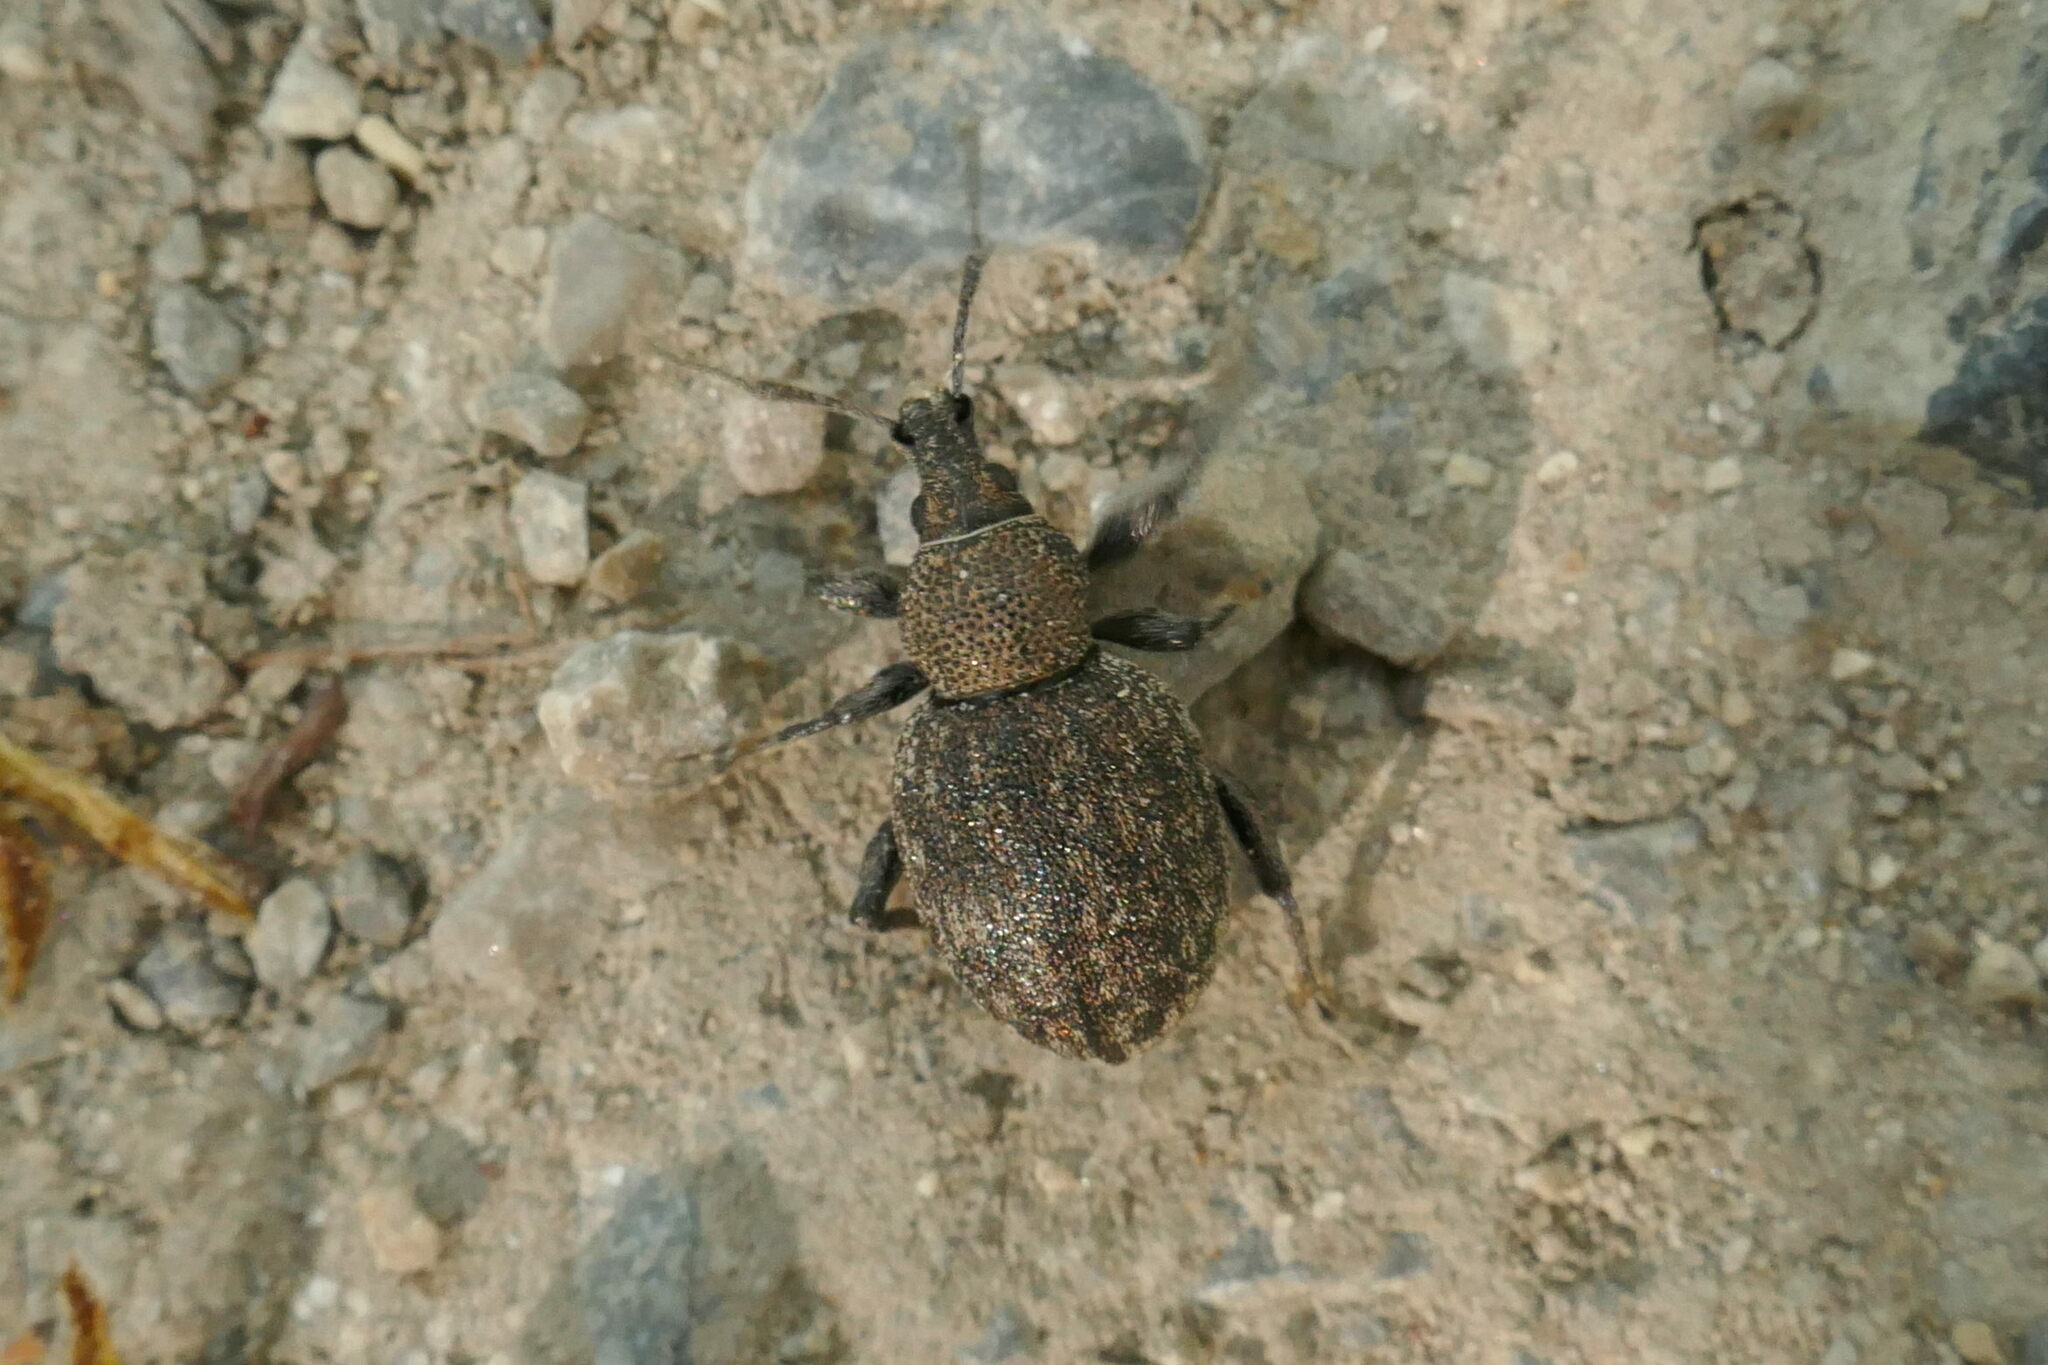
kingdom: Animalia
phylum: Arthropoda
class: Insecta
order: Coleoptera
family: Curculionidae
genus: Otiorhynchus
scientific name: Otiorhynchus ligustici
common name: Weevil
